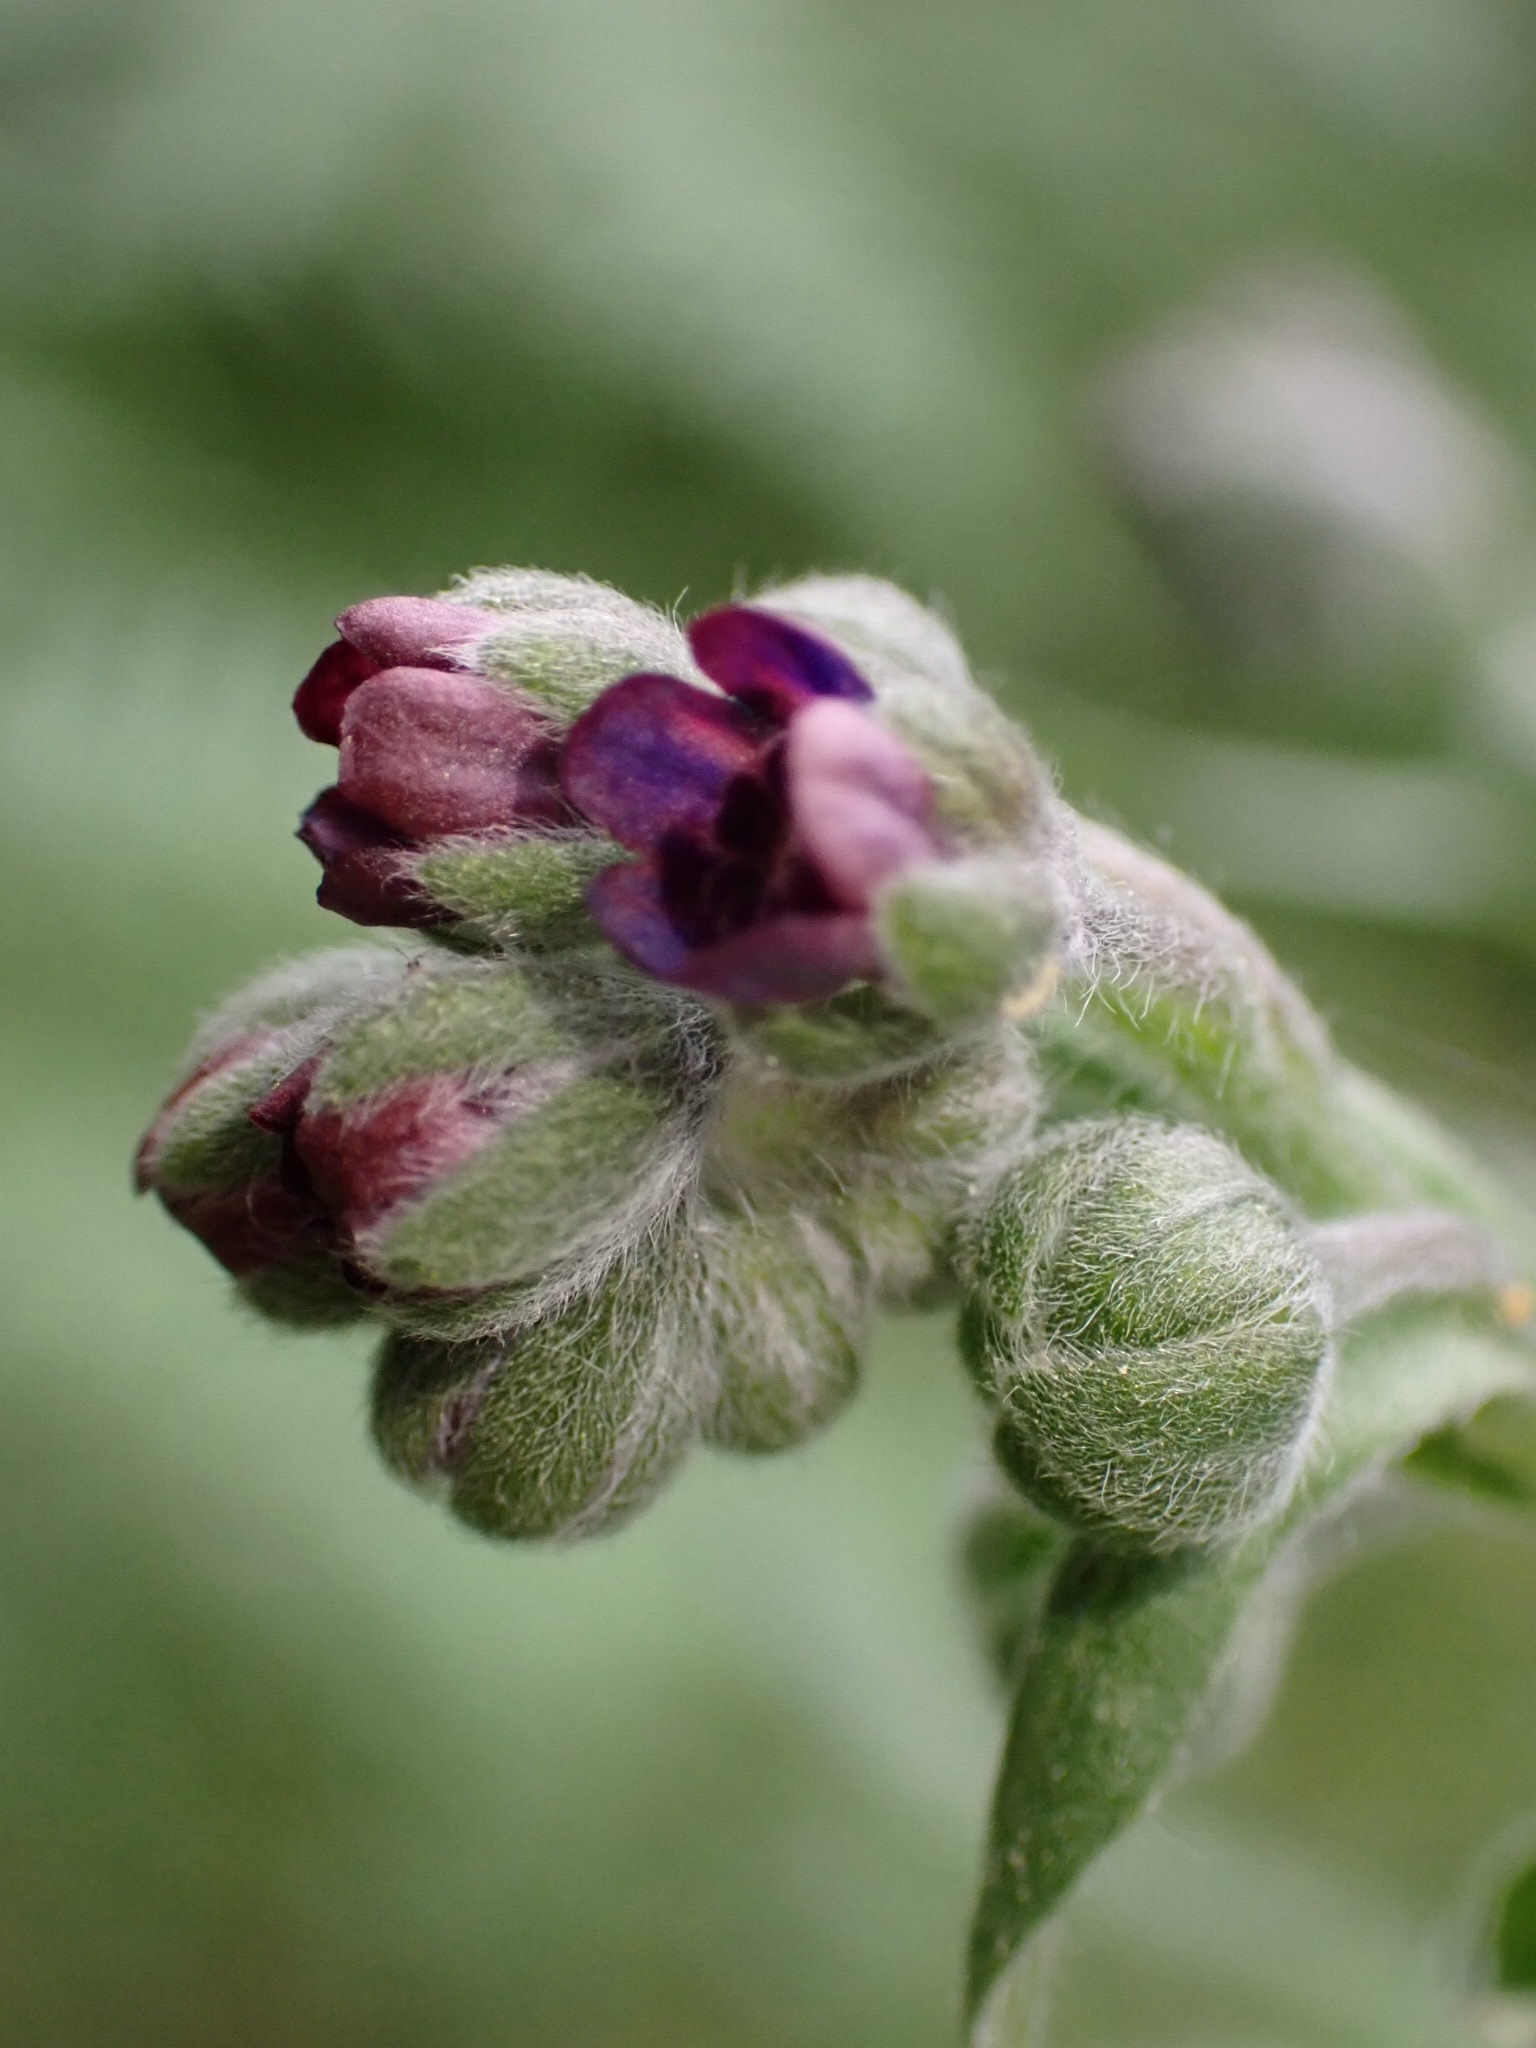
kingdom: Plantae
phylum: Tracheophyta
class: Magnoliopsida
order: Boraginales
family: Boraginaceae
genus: Cynoglossum
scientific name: Cynoglossum officinale
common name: Hound's-tongue
